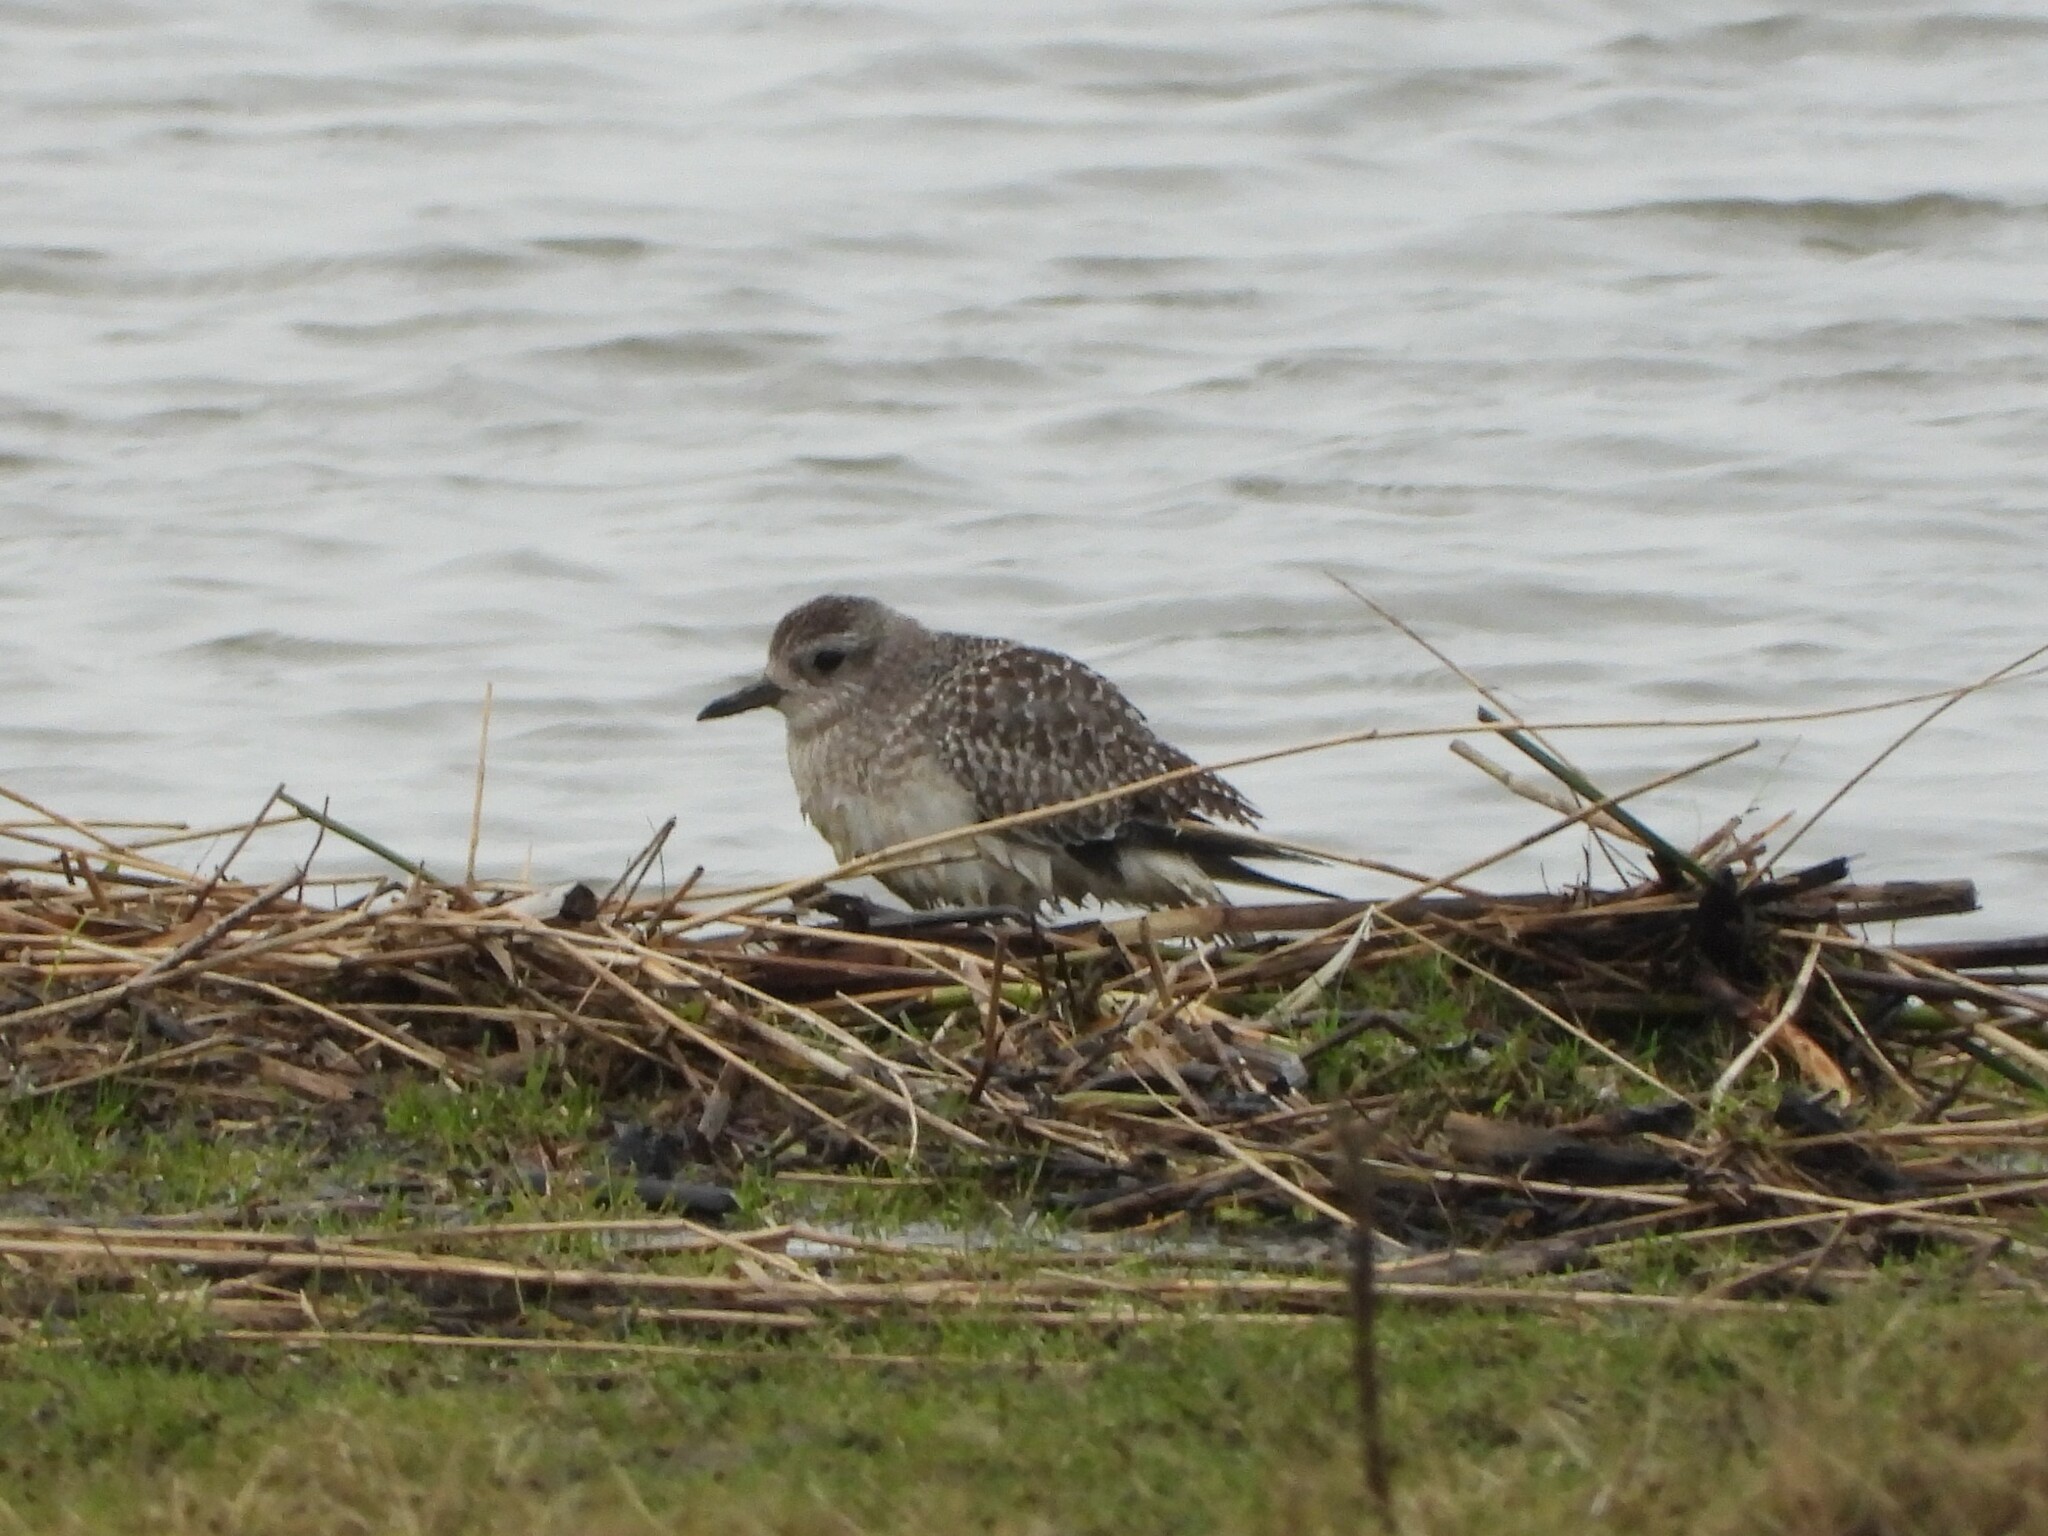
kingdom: Animalia
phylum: Chordata
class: Aves
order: Charadriiformes
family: Charadriidae
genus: Pluvialis
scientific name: Pluvialis squatarola
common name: Grey plover
